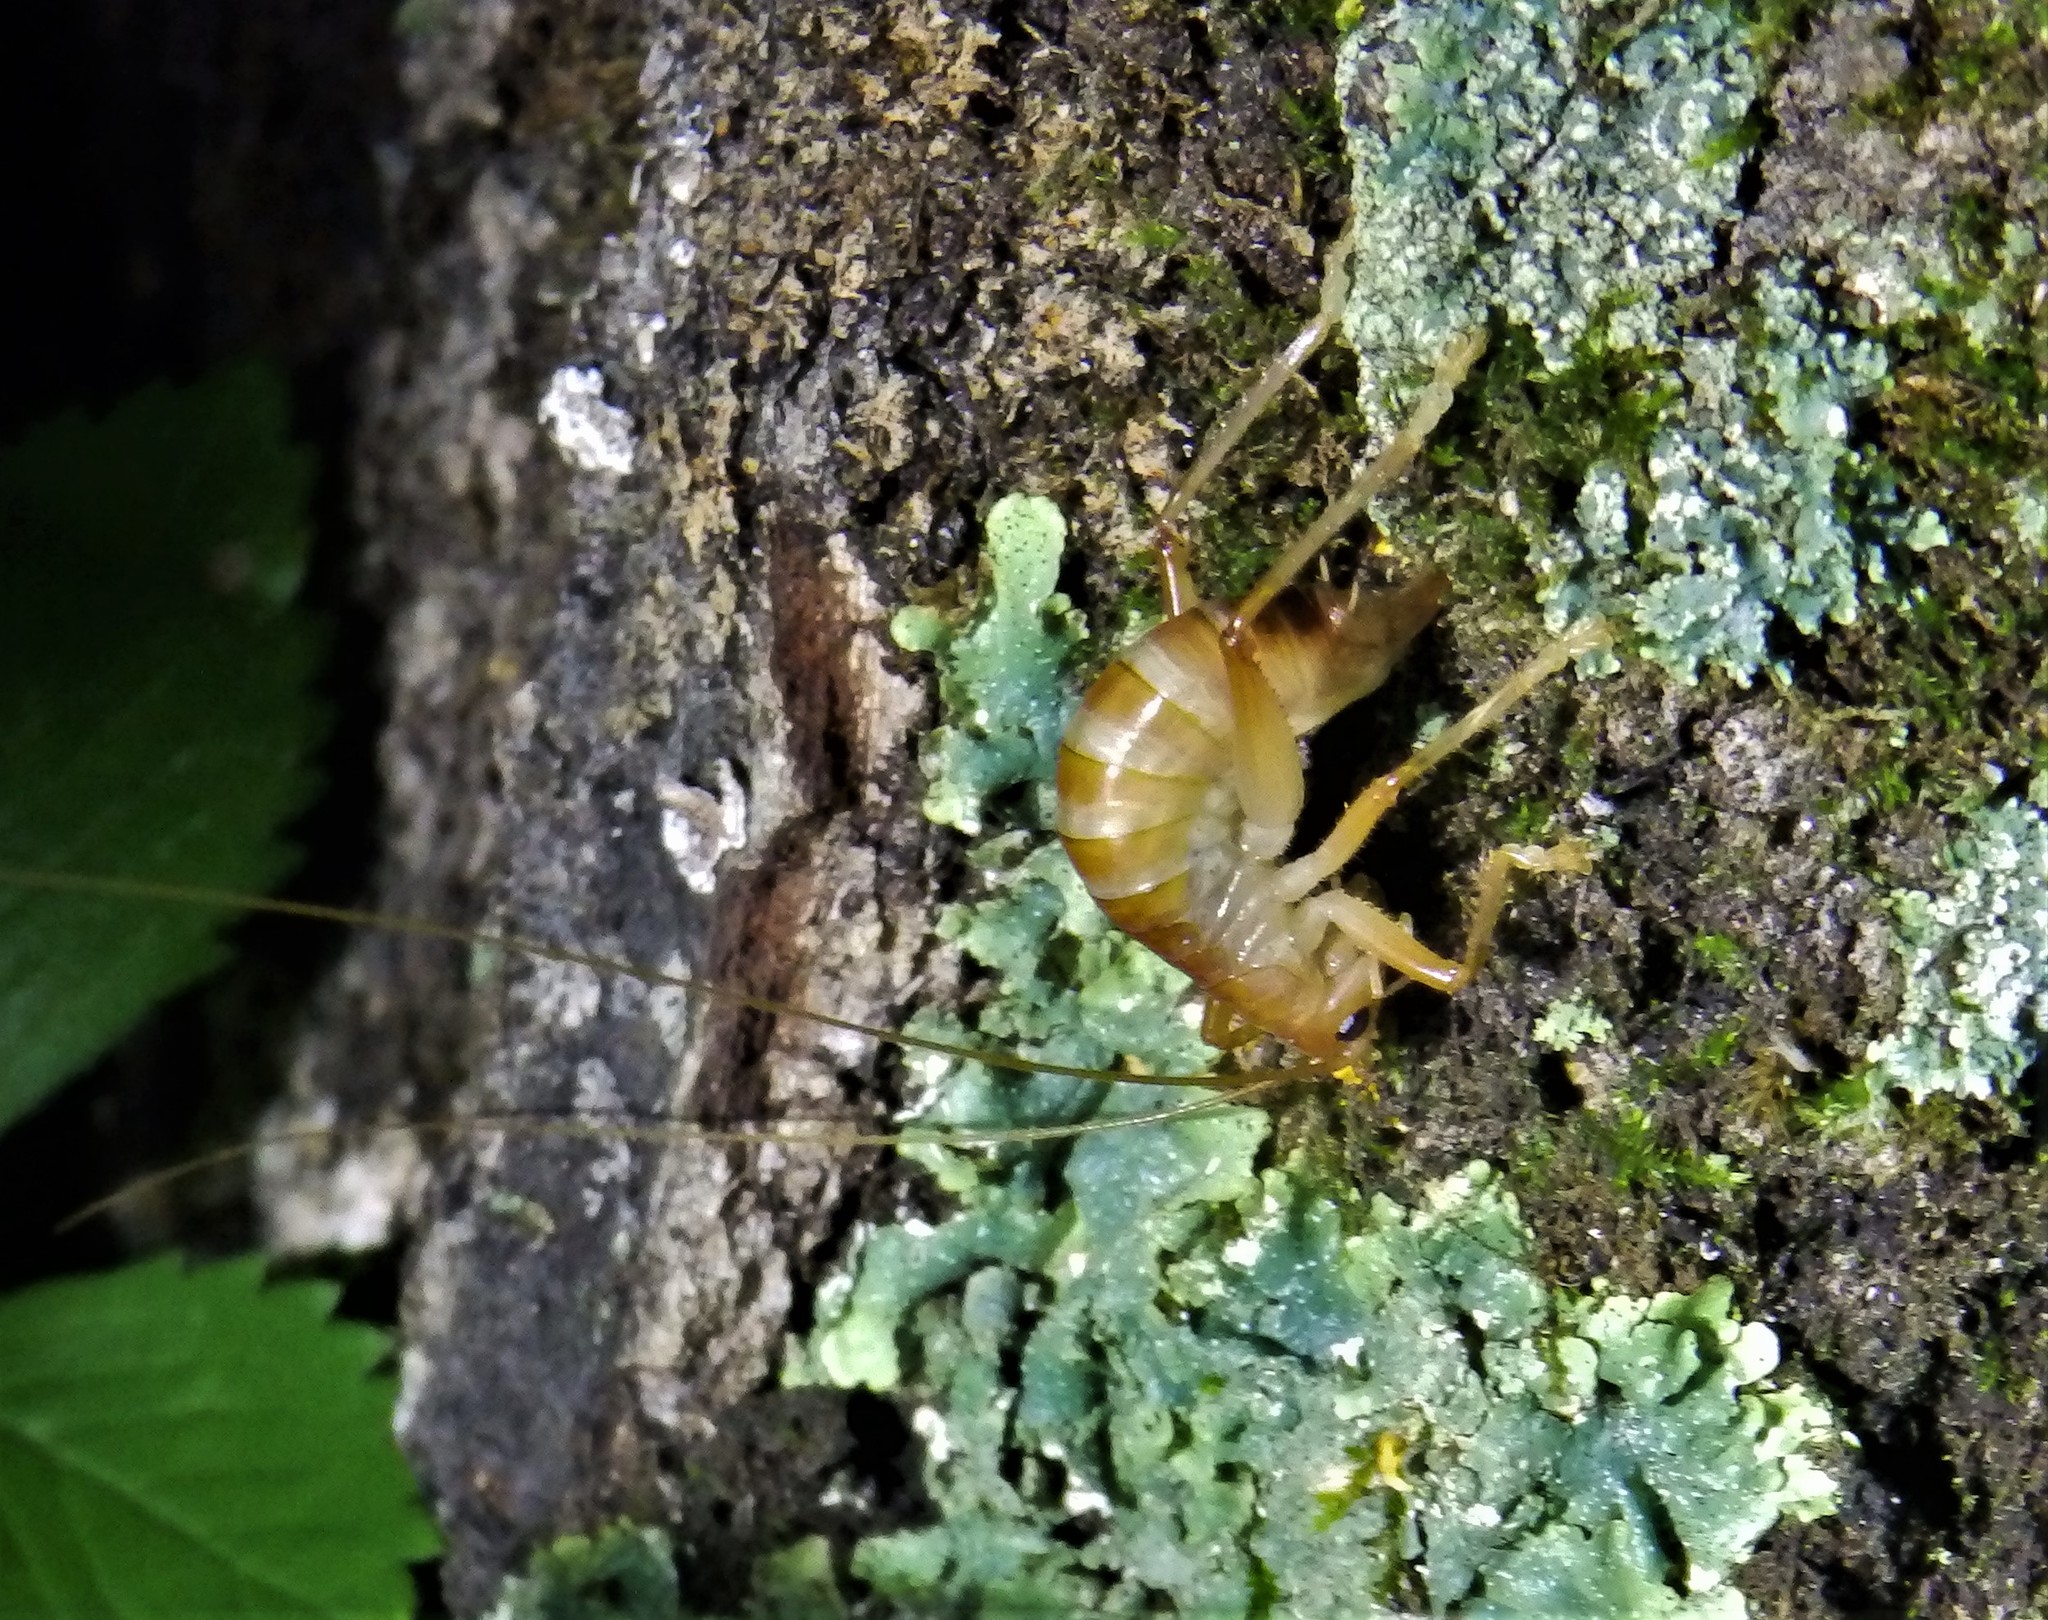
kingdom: Animalia
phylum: Arthropoda
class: Insecta
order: Orthoptera
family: Gryllacrididae
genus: Camptonotus
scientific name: Camptonotus carolinensis
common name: Carolina leaf-roller
